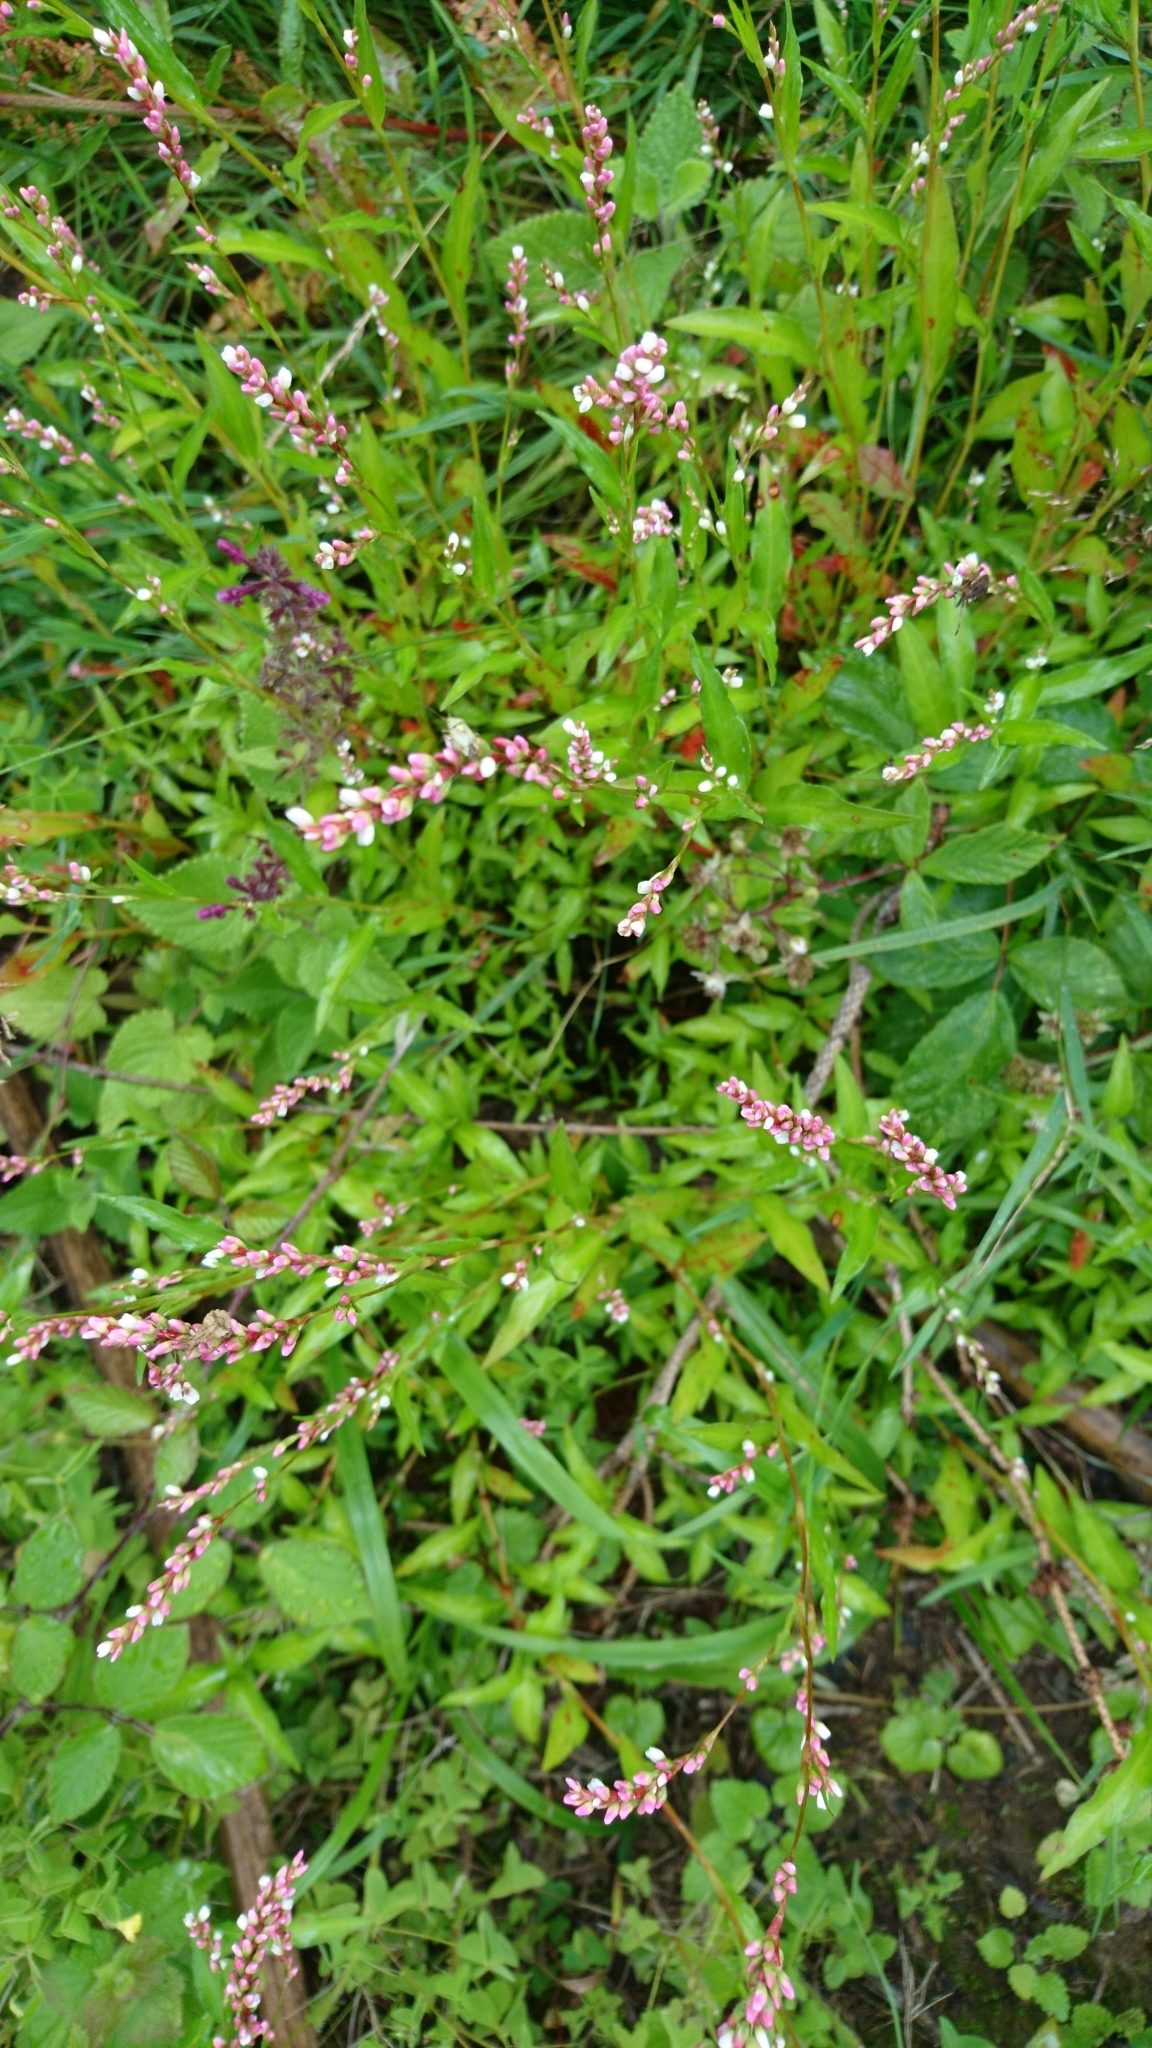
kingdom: Plantae
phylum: Tracheophyta
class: Magnoliopsida
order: Caryophyllales
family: Polygonaceae
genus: Persicaria
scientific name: Persicaria minor
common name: Small water-pepper
